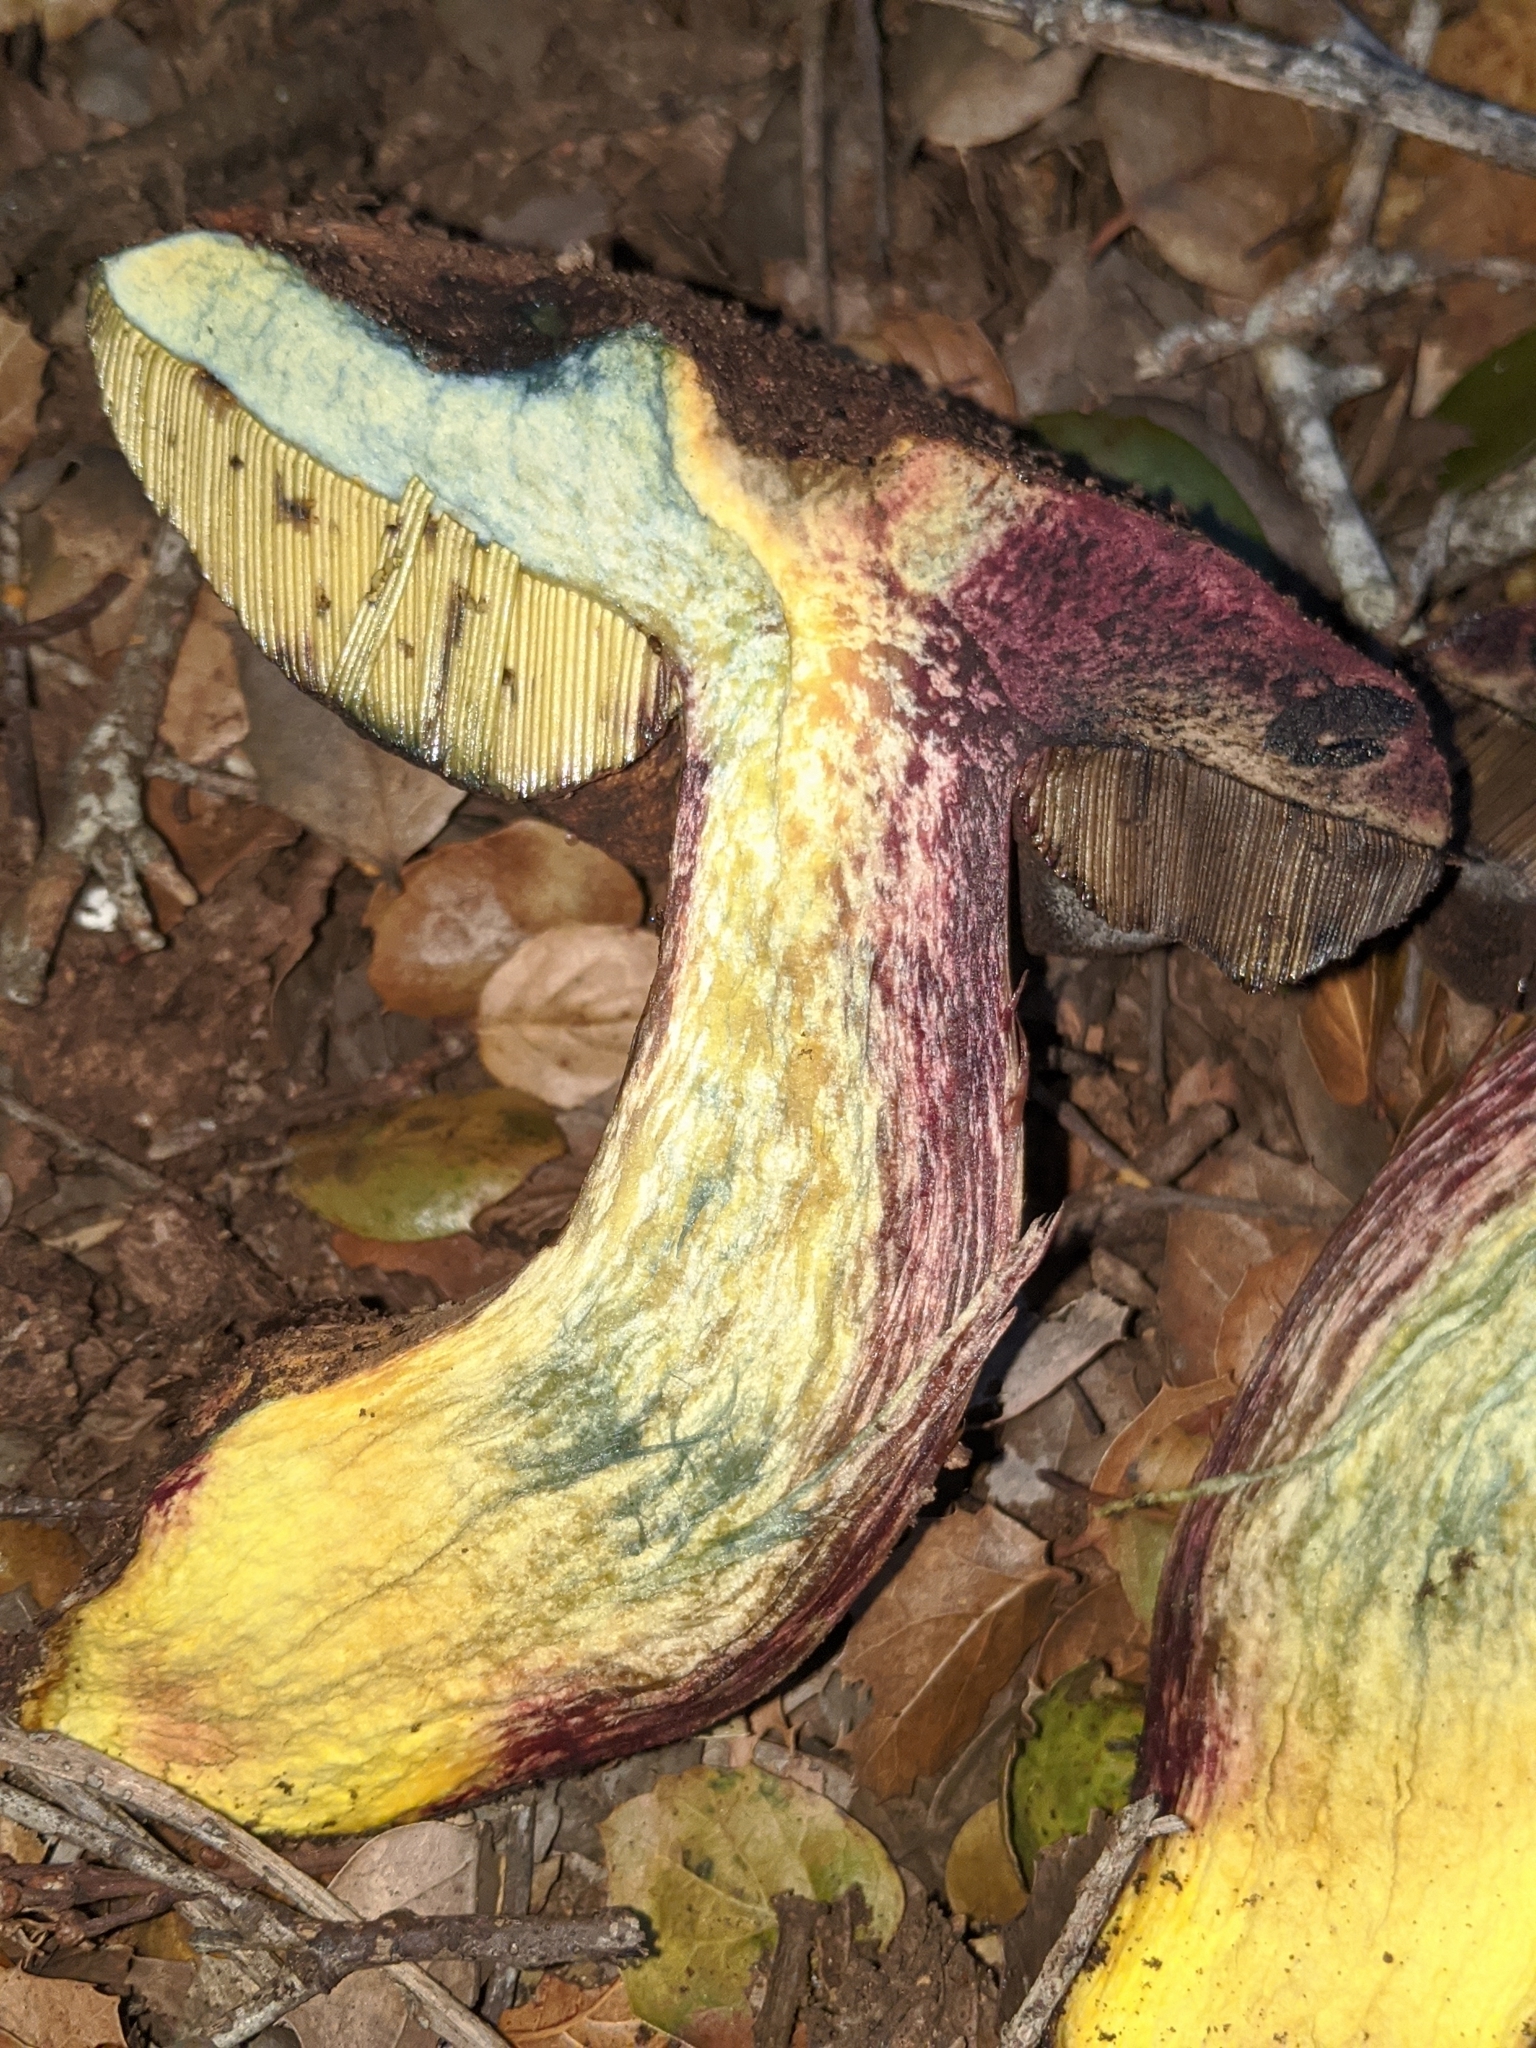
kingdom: Fungi
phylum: Basidiomycota
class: Agaricomycetes
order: Boletales
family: Boletaceae
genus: Suillellus
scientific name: Suillellus amygdalinus
